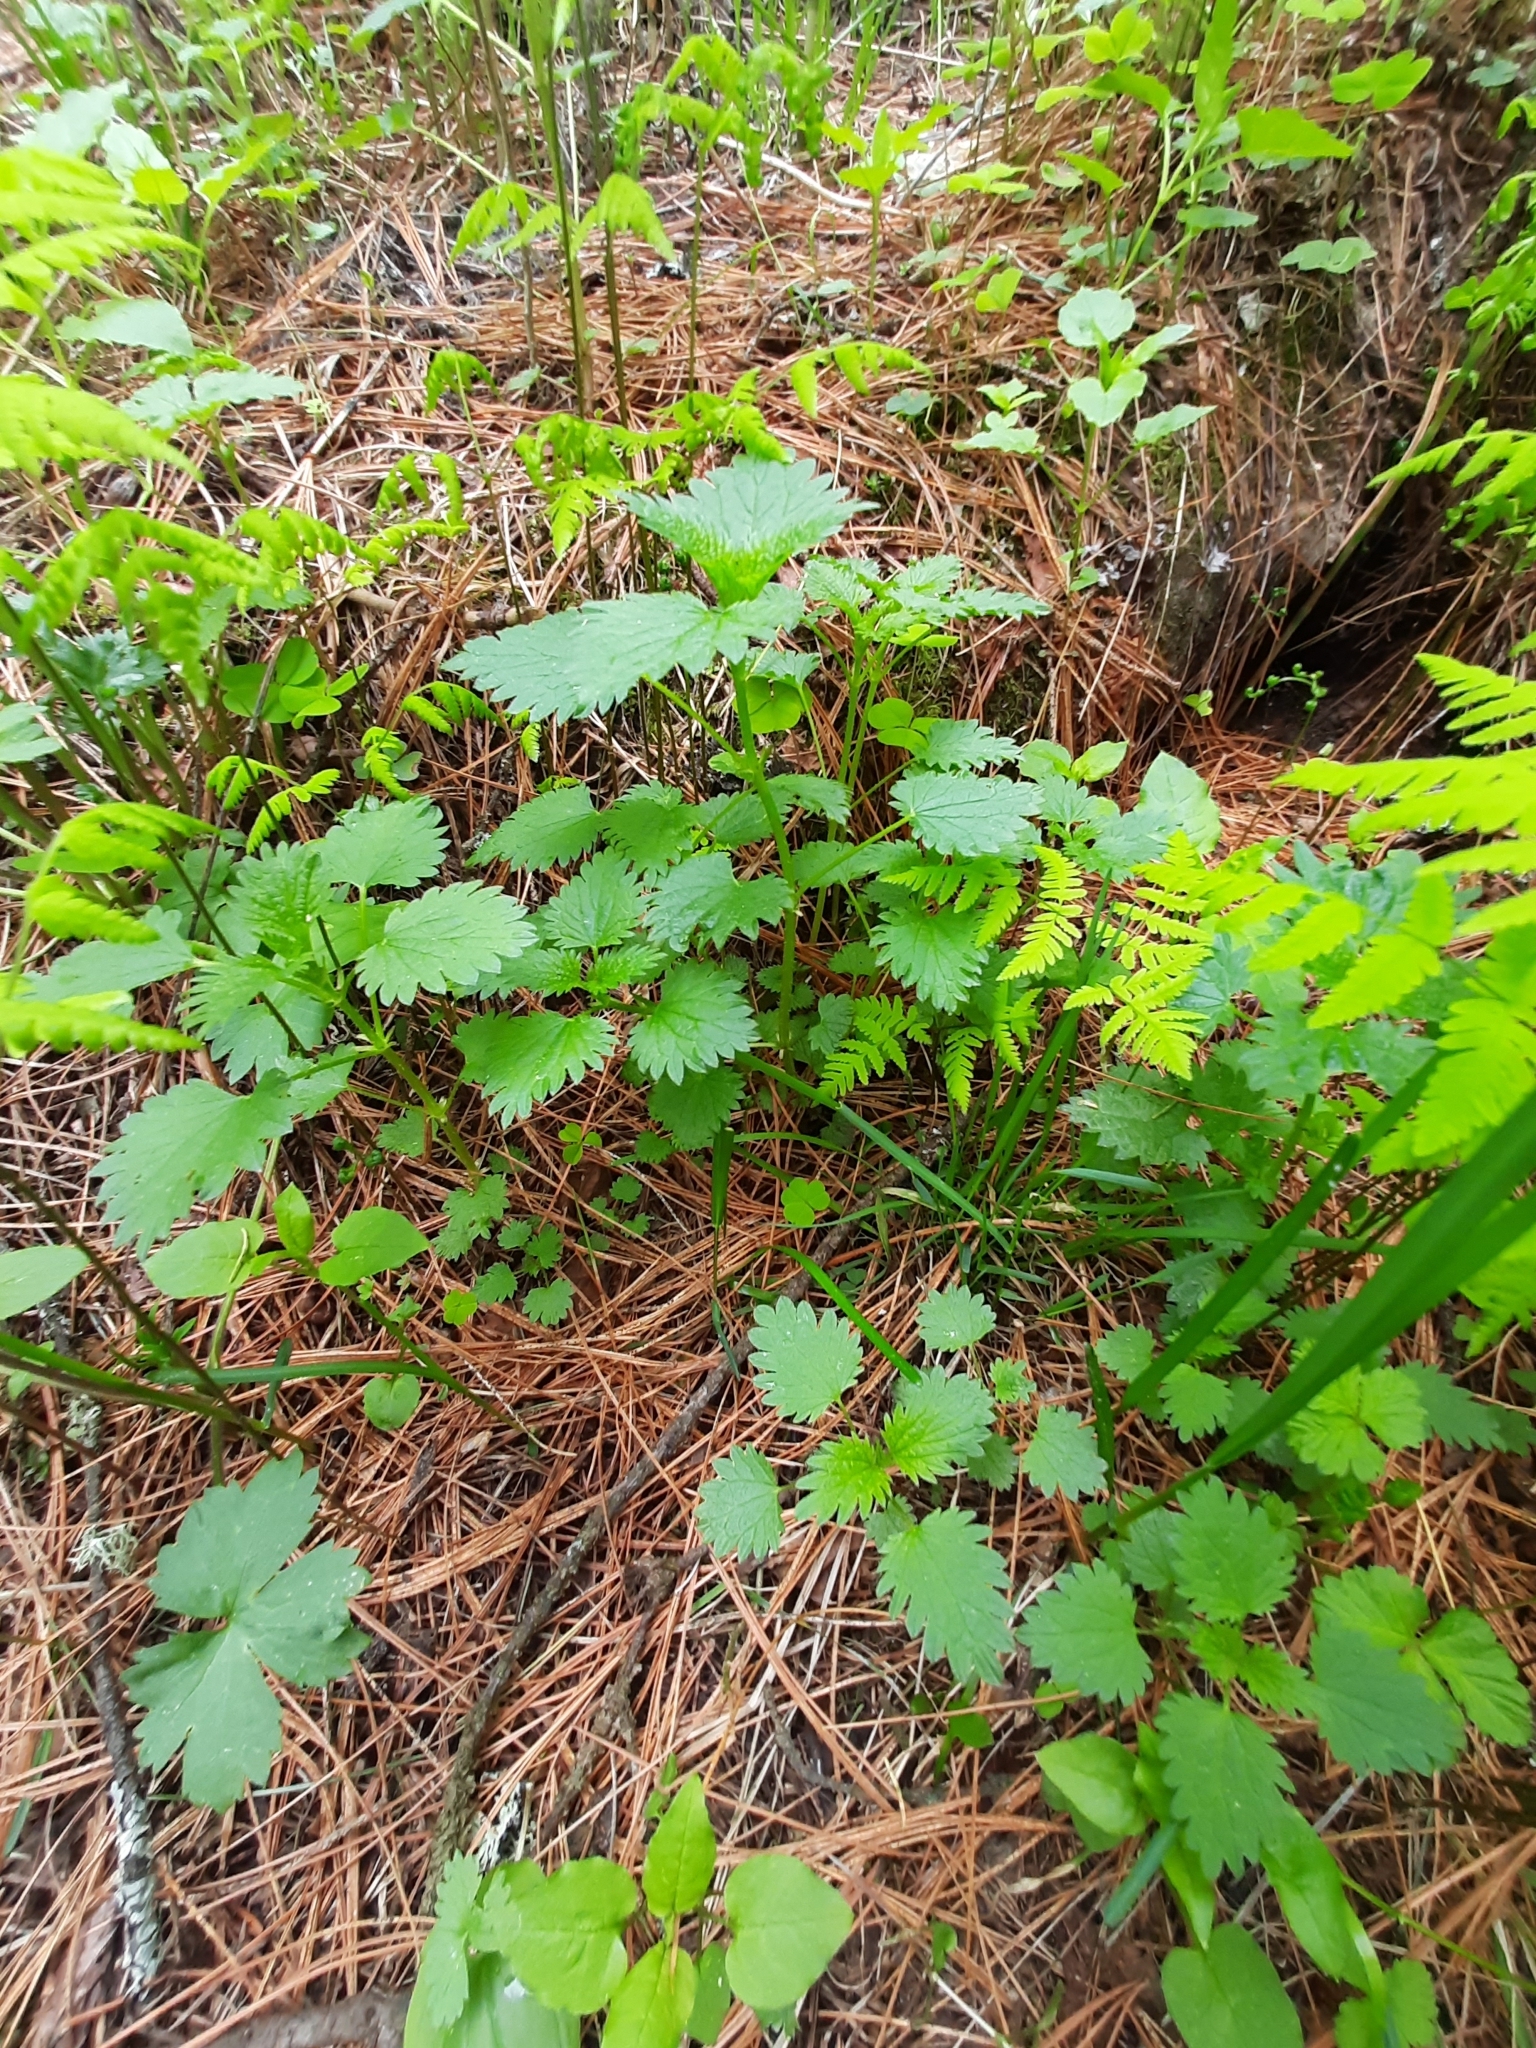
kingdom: Plantae
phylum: Tracheophyta
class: Magnoliopsida
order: Rosales
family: Urticaceae
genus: Urtica
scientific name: Urtica dioica
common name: Common nettle
